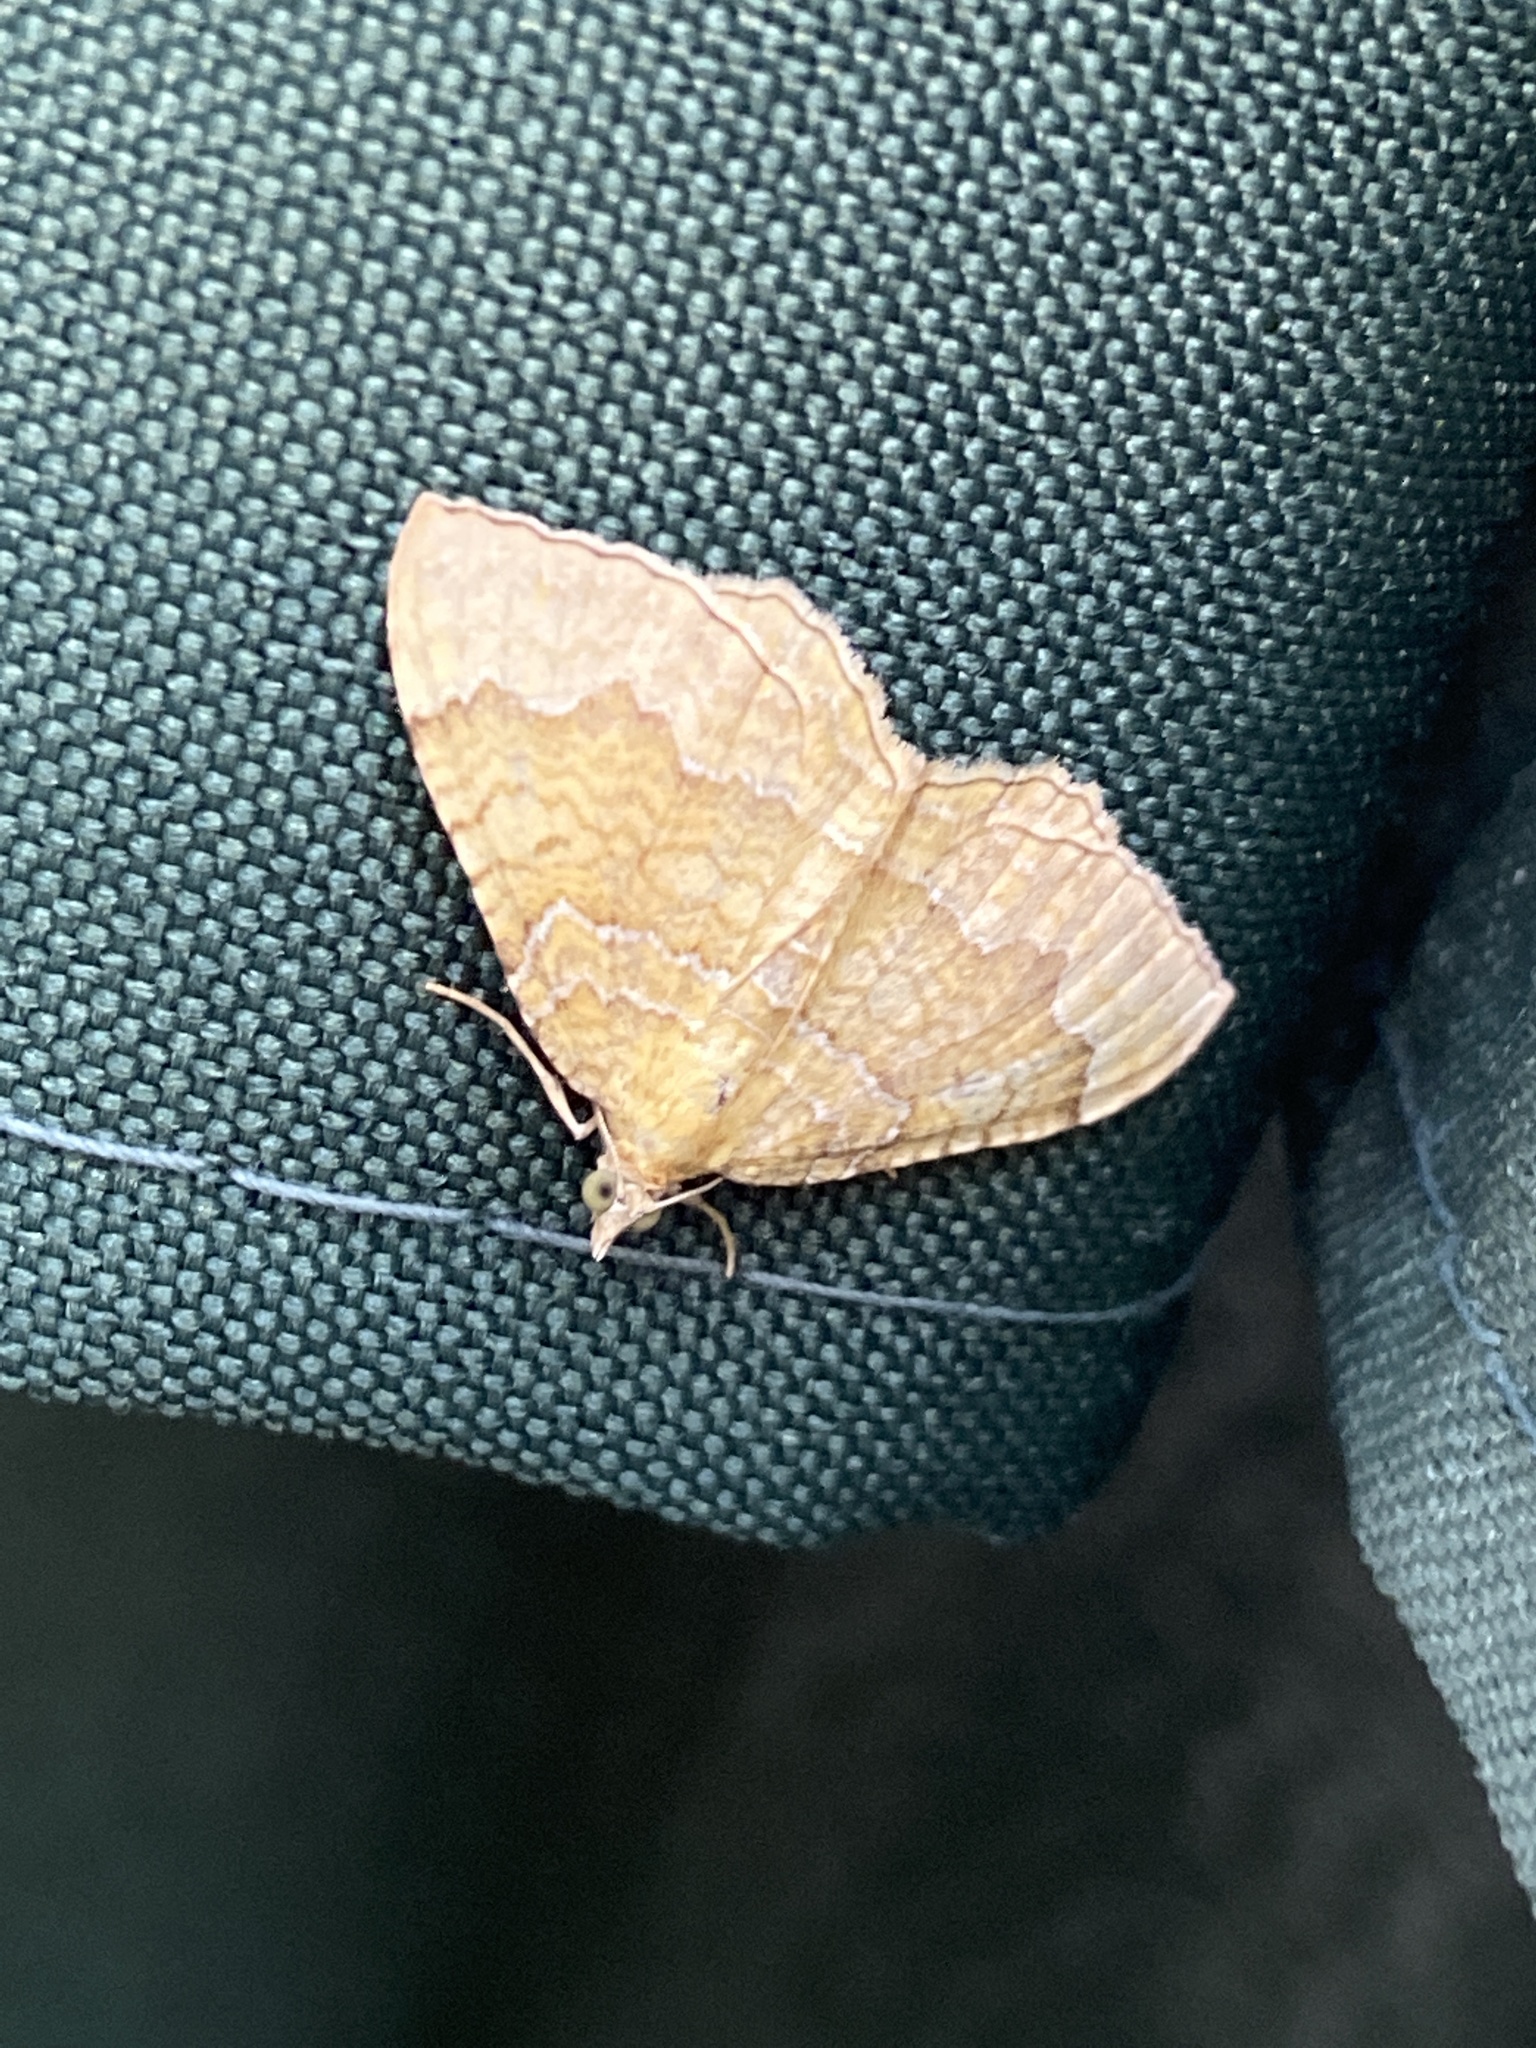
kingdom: Animalia
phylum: Arthropoda
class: Insecta
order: Lepidoptera
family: Geometridae
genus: Camptogramma
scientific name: Camptogramma bilineata
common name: Yellow shell
